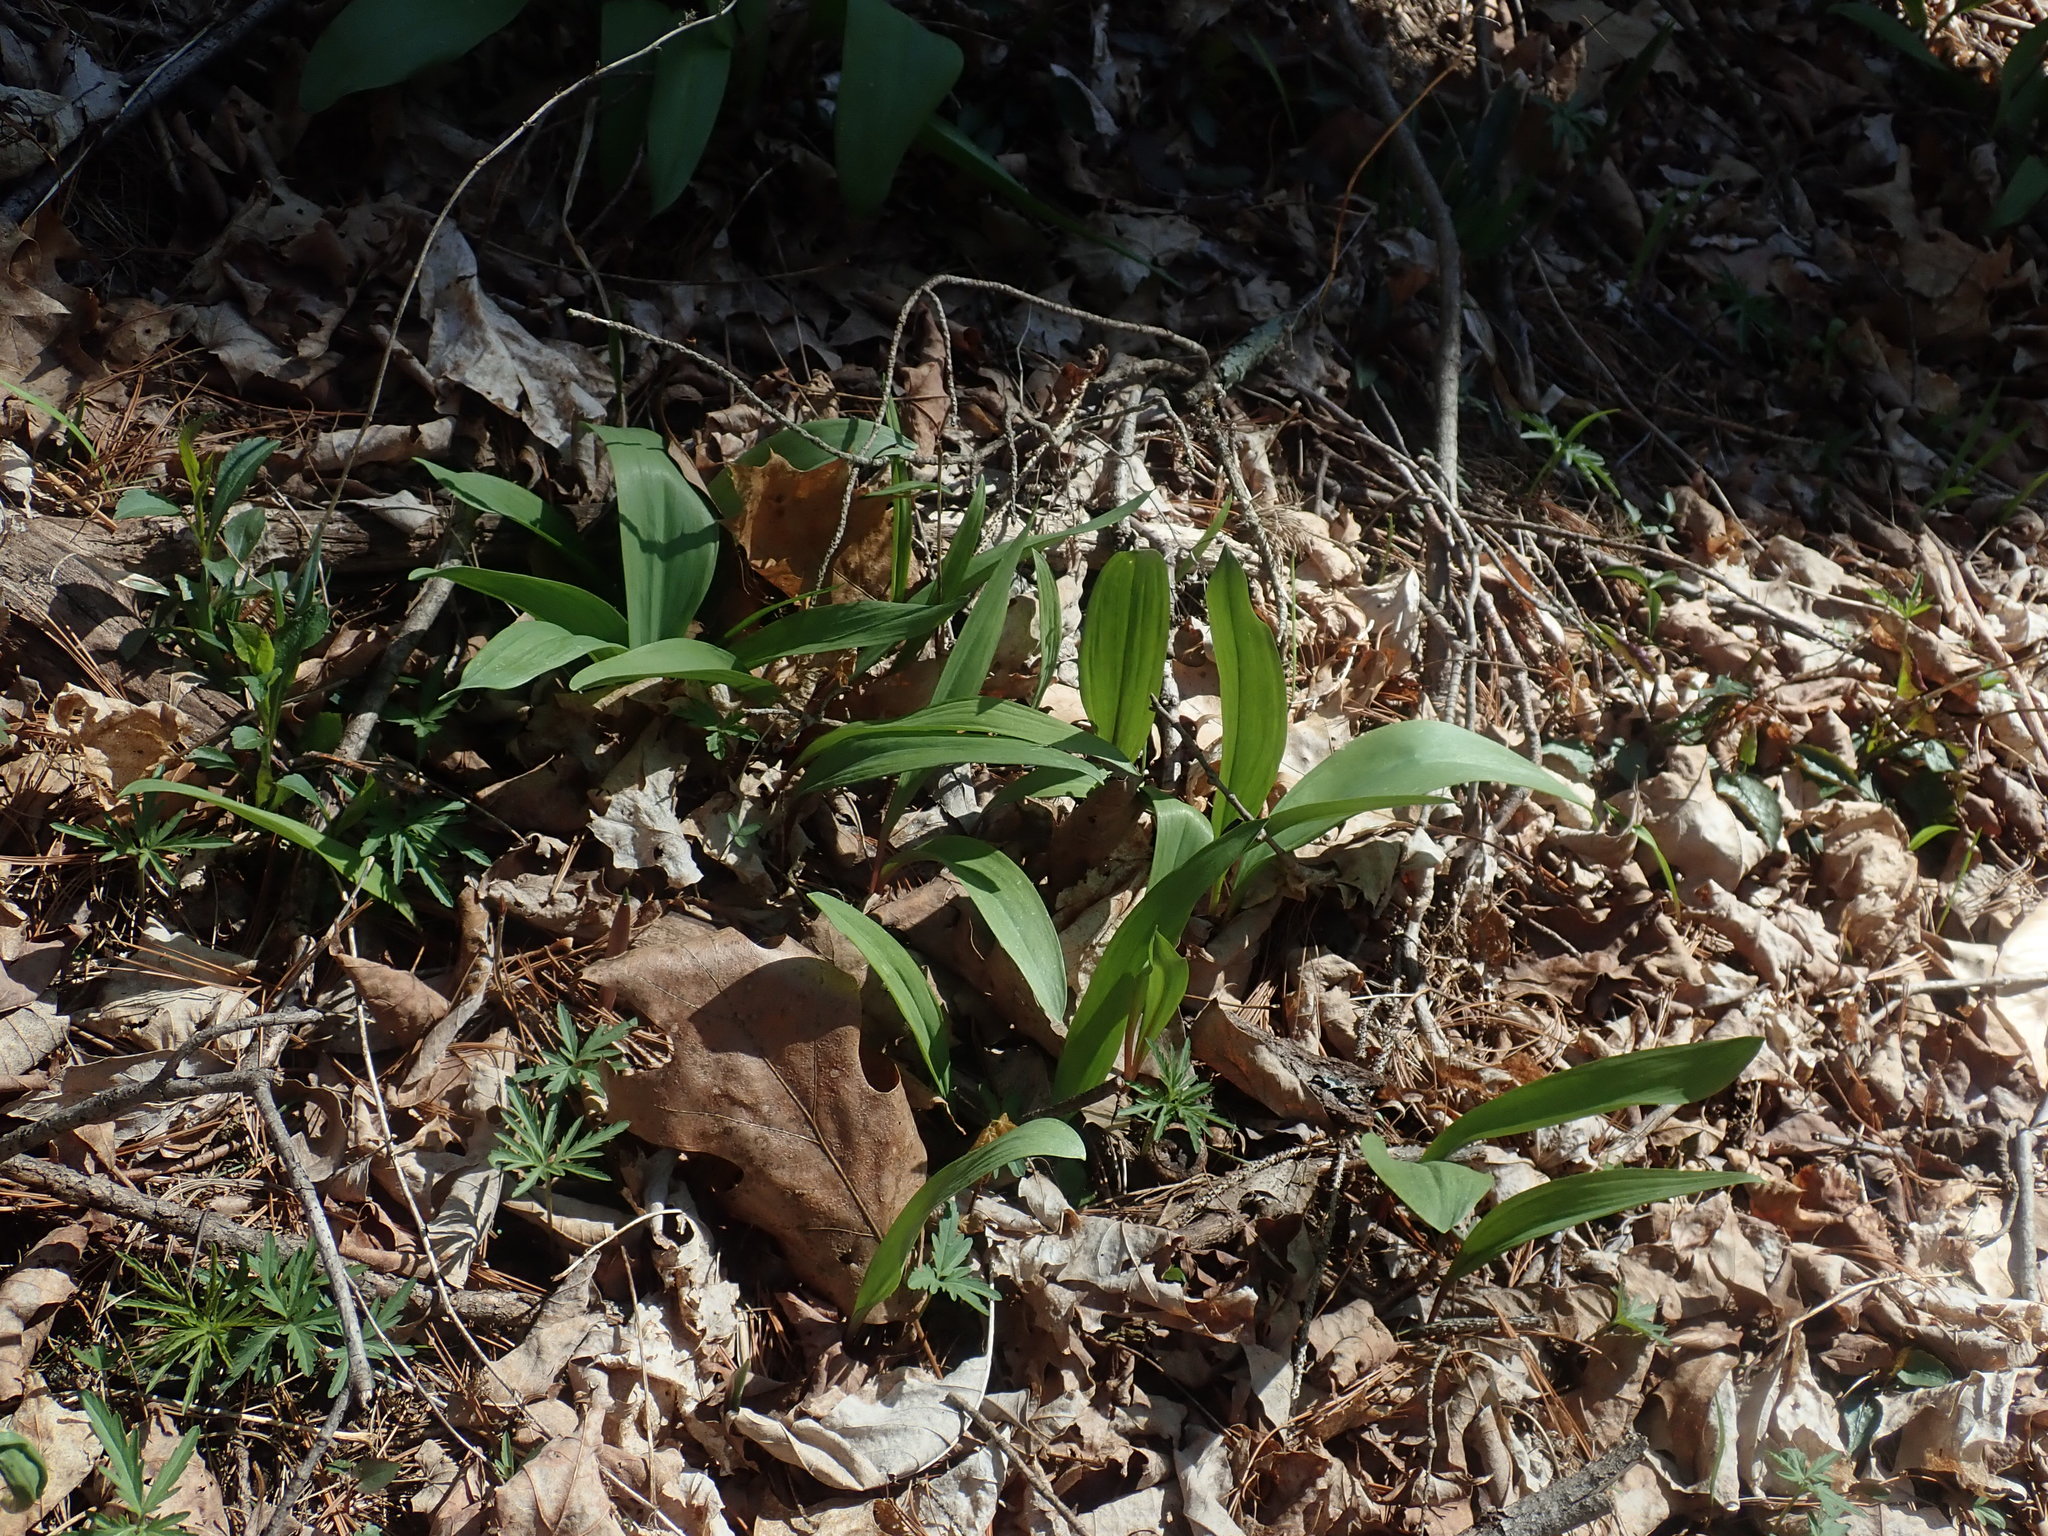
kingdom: Plantae
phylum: Tracheophyta
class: Liliopsida
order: Asparagales
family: Amaryllidaceae
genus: Allium
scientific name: Allium tricoccum
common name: Ramp
